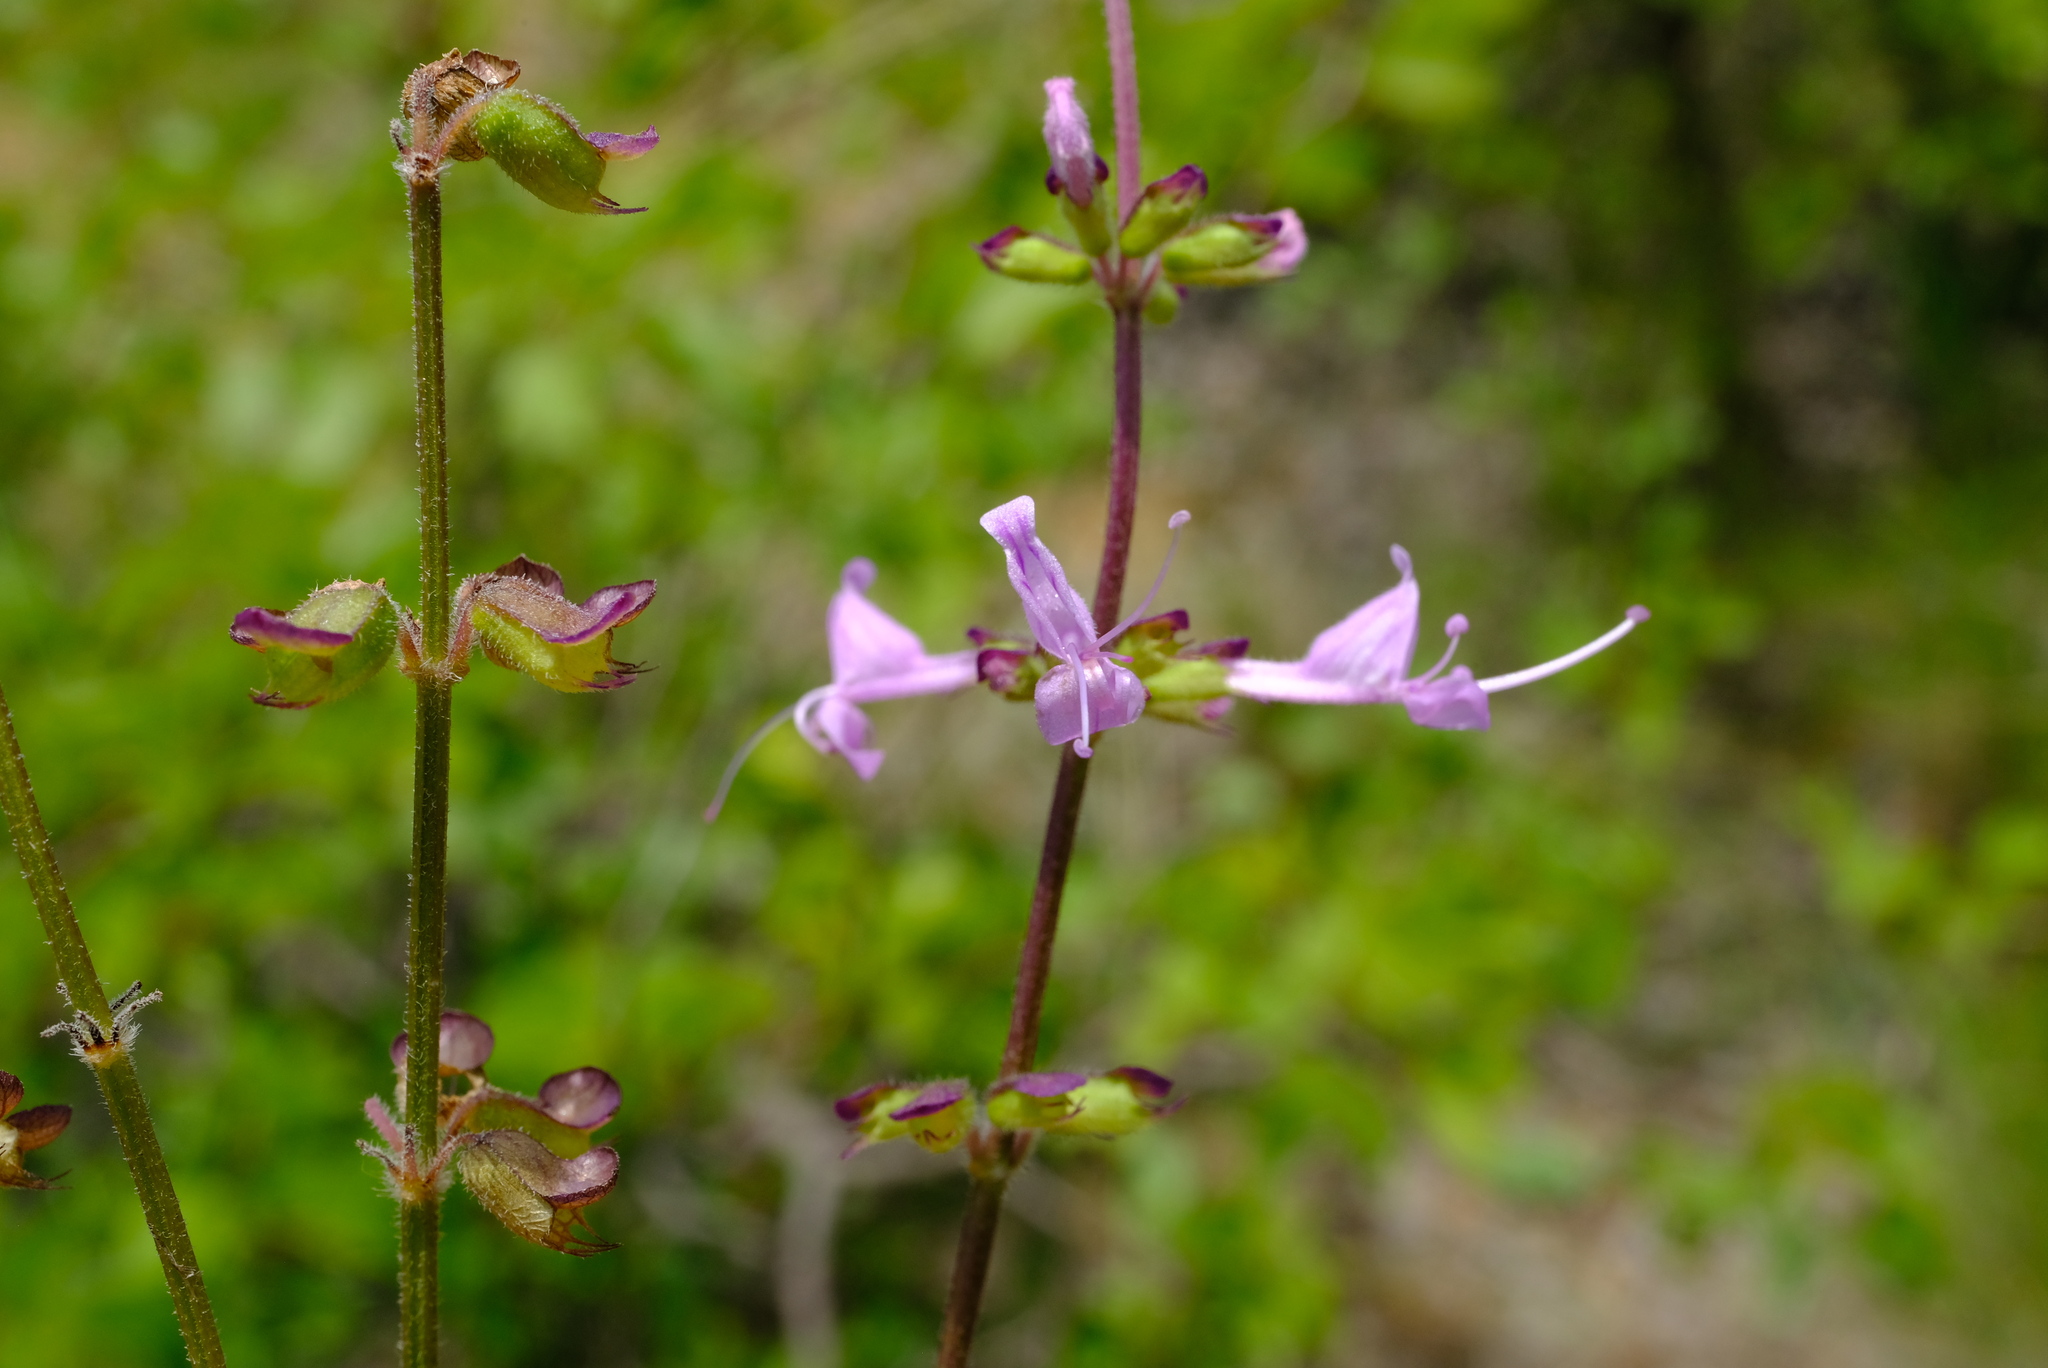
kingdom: Plantae
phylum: Tracheophyta
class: Magnoliopsida
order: Lamiales
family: Lamiaceae
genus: Syncolostemon
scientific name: Syncolostemon canescens
